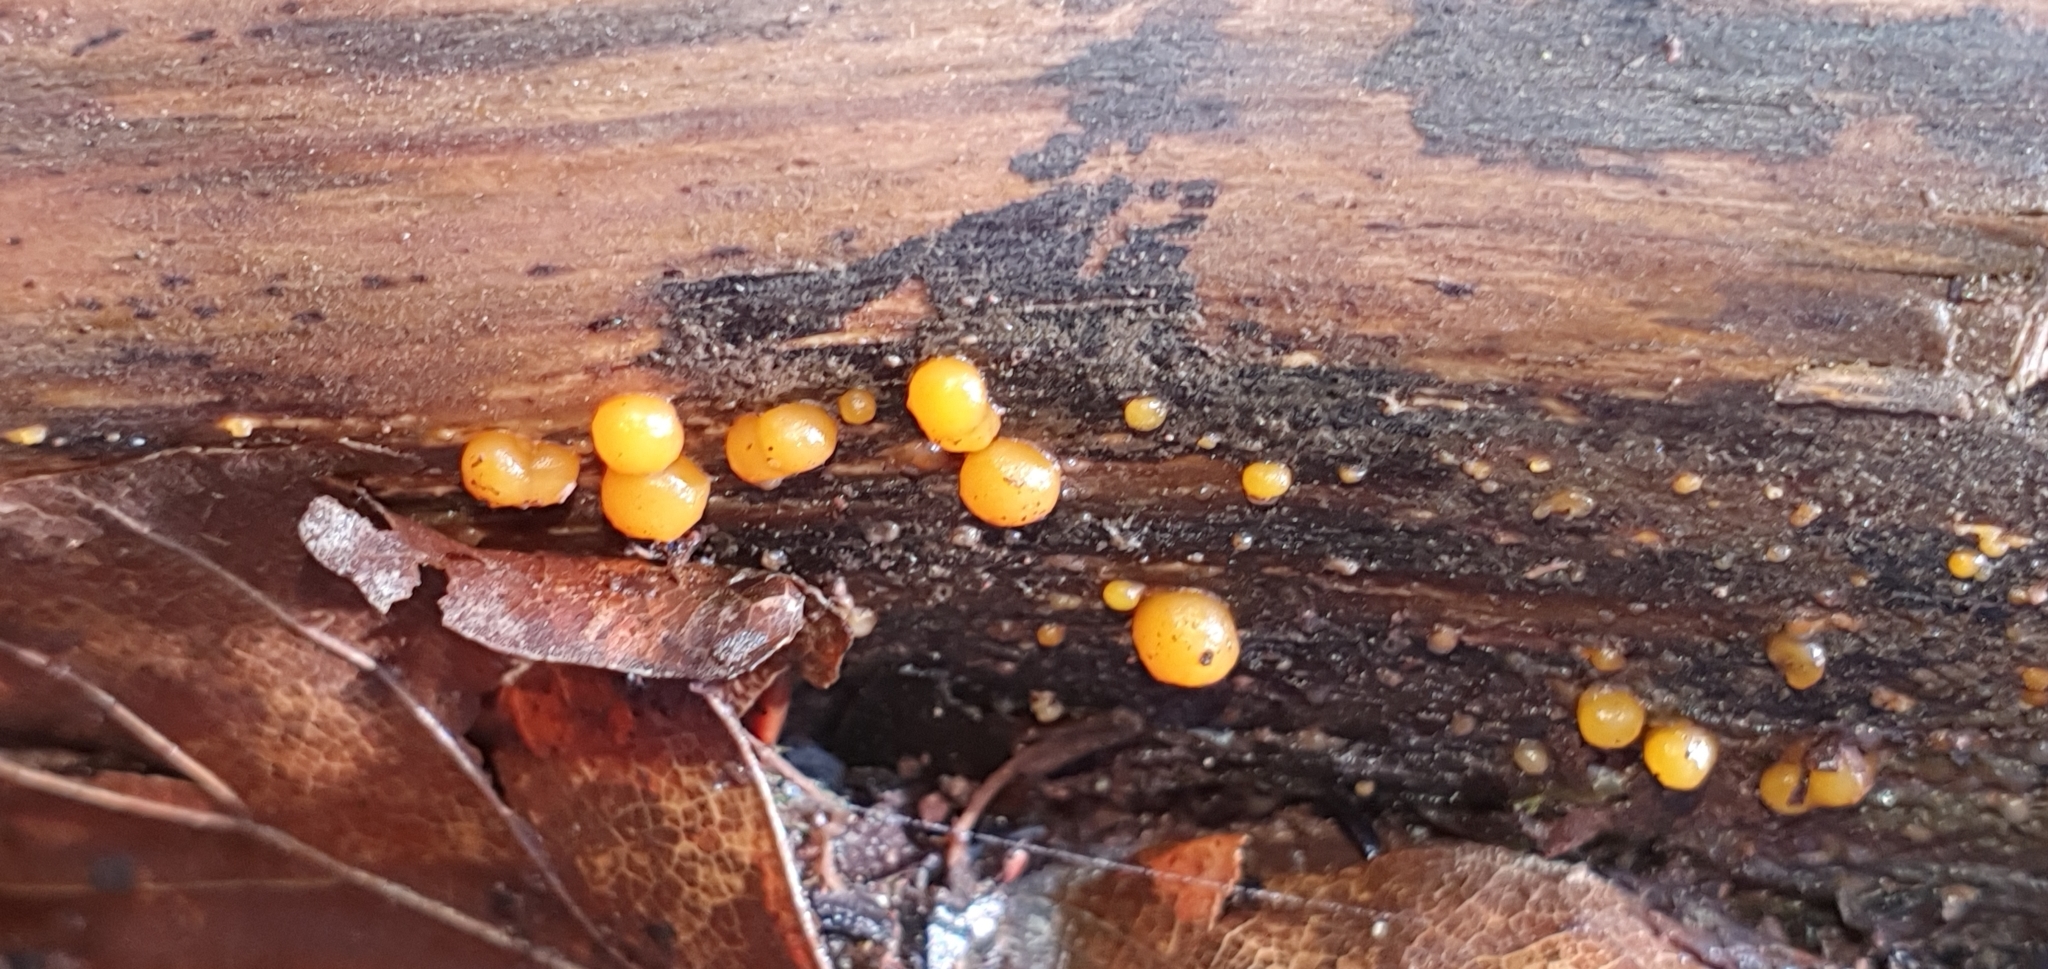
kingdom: Fungi
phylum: Basidiomycota
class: Dacrymycetes
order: Dacrymycetales
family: Dacrymycetaceae
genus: Dacrymyces
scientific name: Dacrymyces stillatus
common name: Common jelly spot
